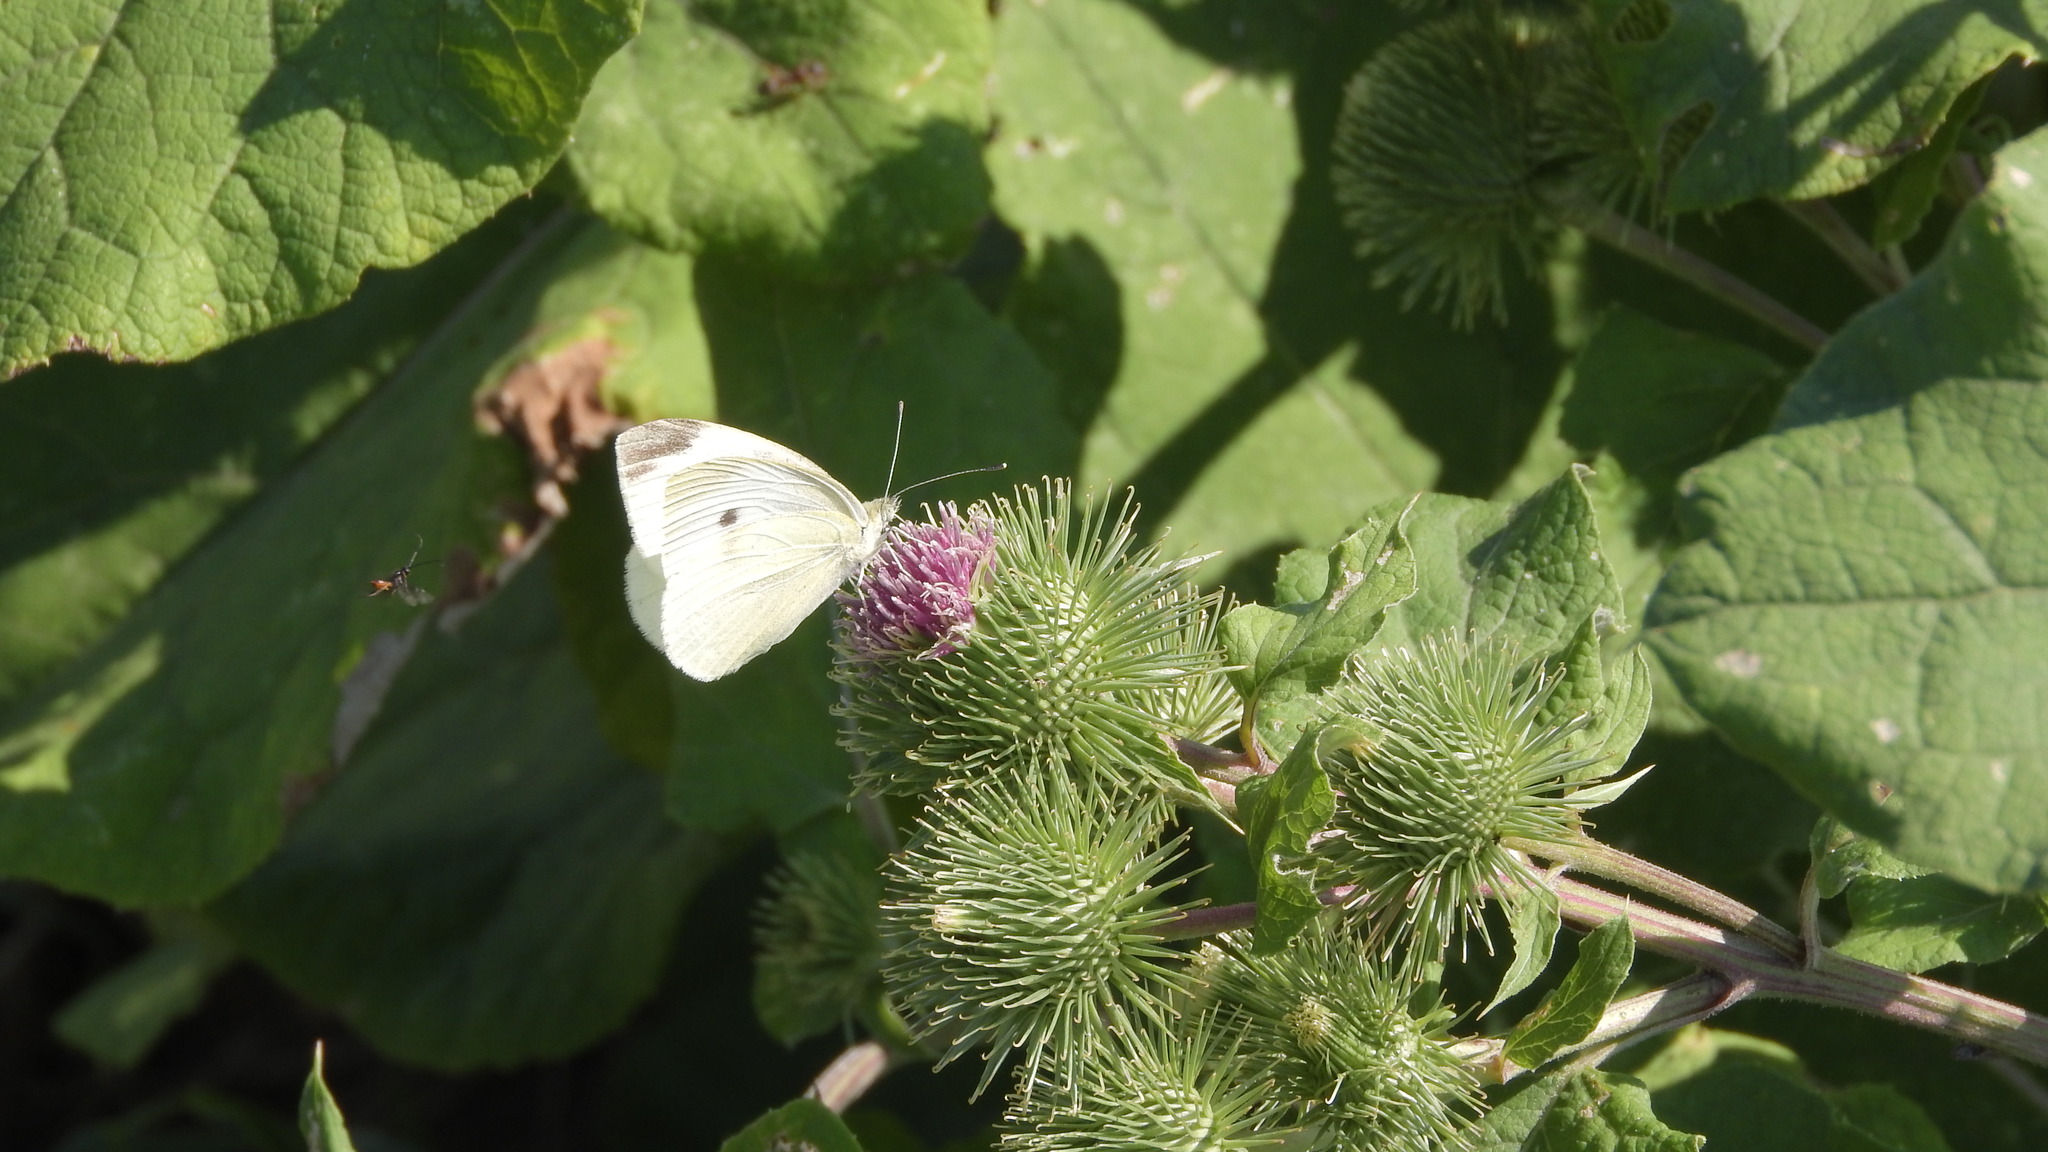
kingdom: Animalia
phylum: Arthropoda
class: Insecta
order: Lepidoptera
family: Pieridae
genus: Pieris
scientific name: Pieris rapae
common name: Small white
